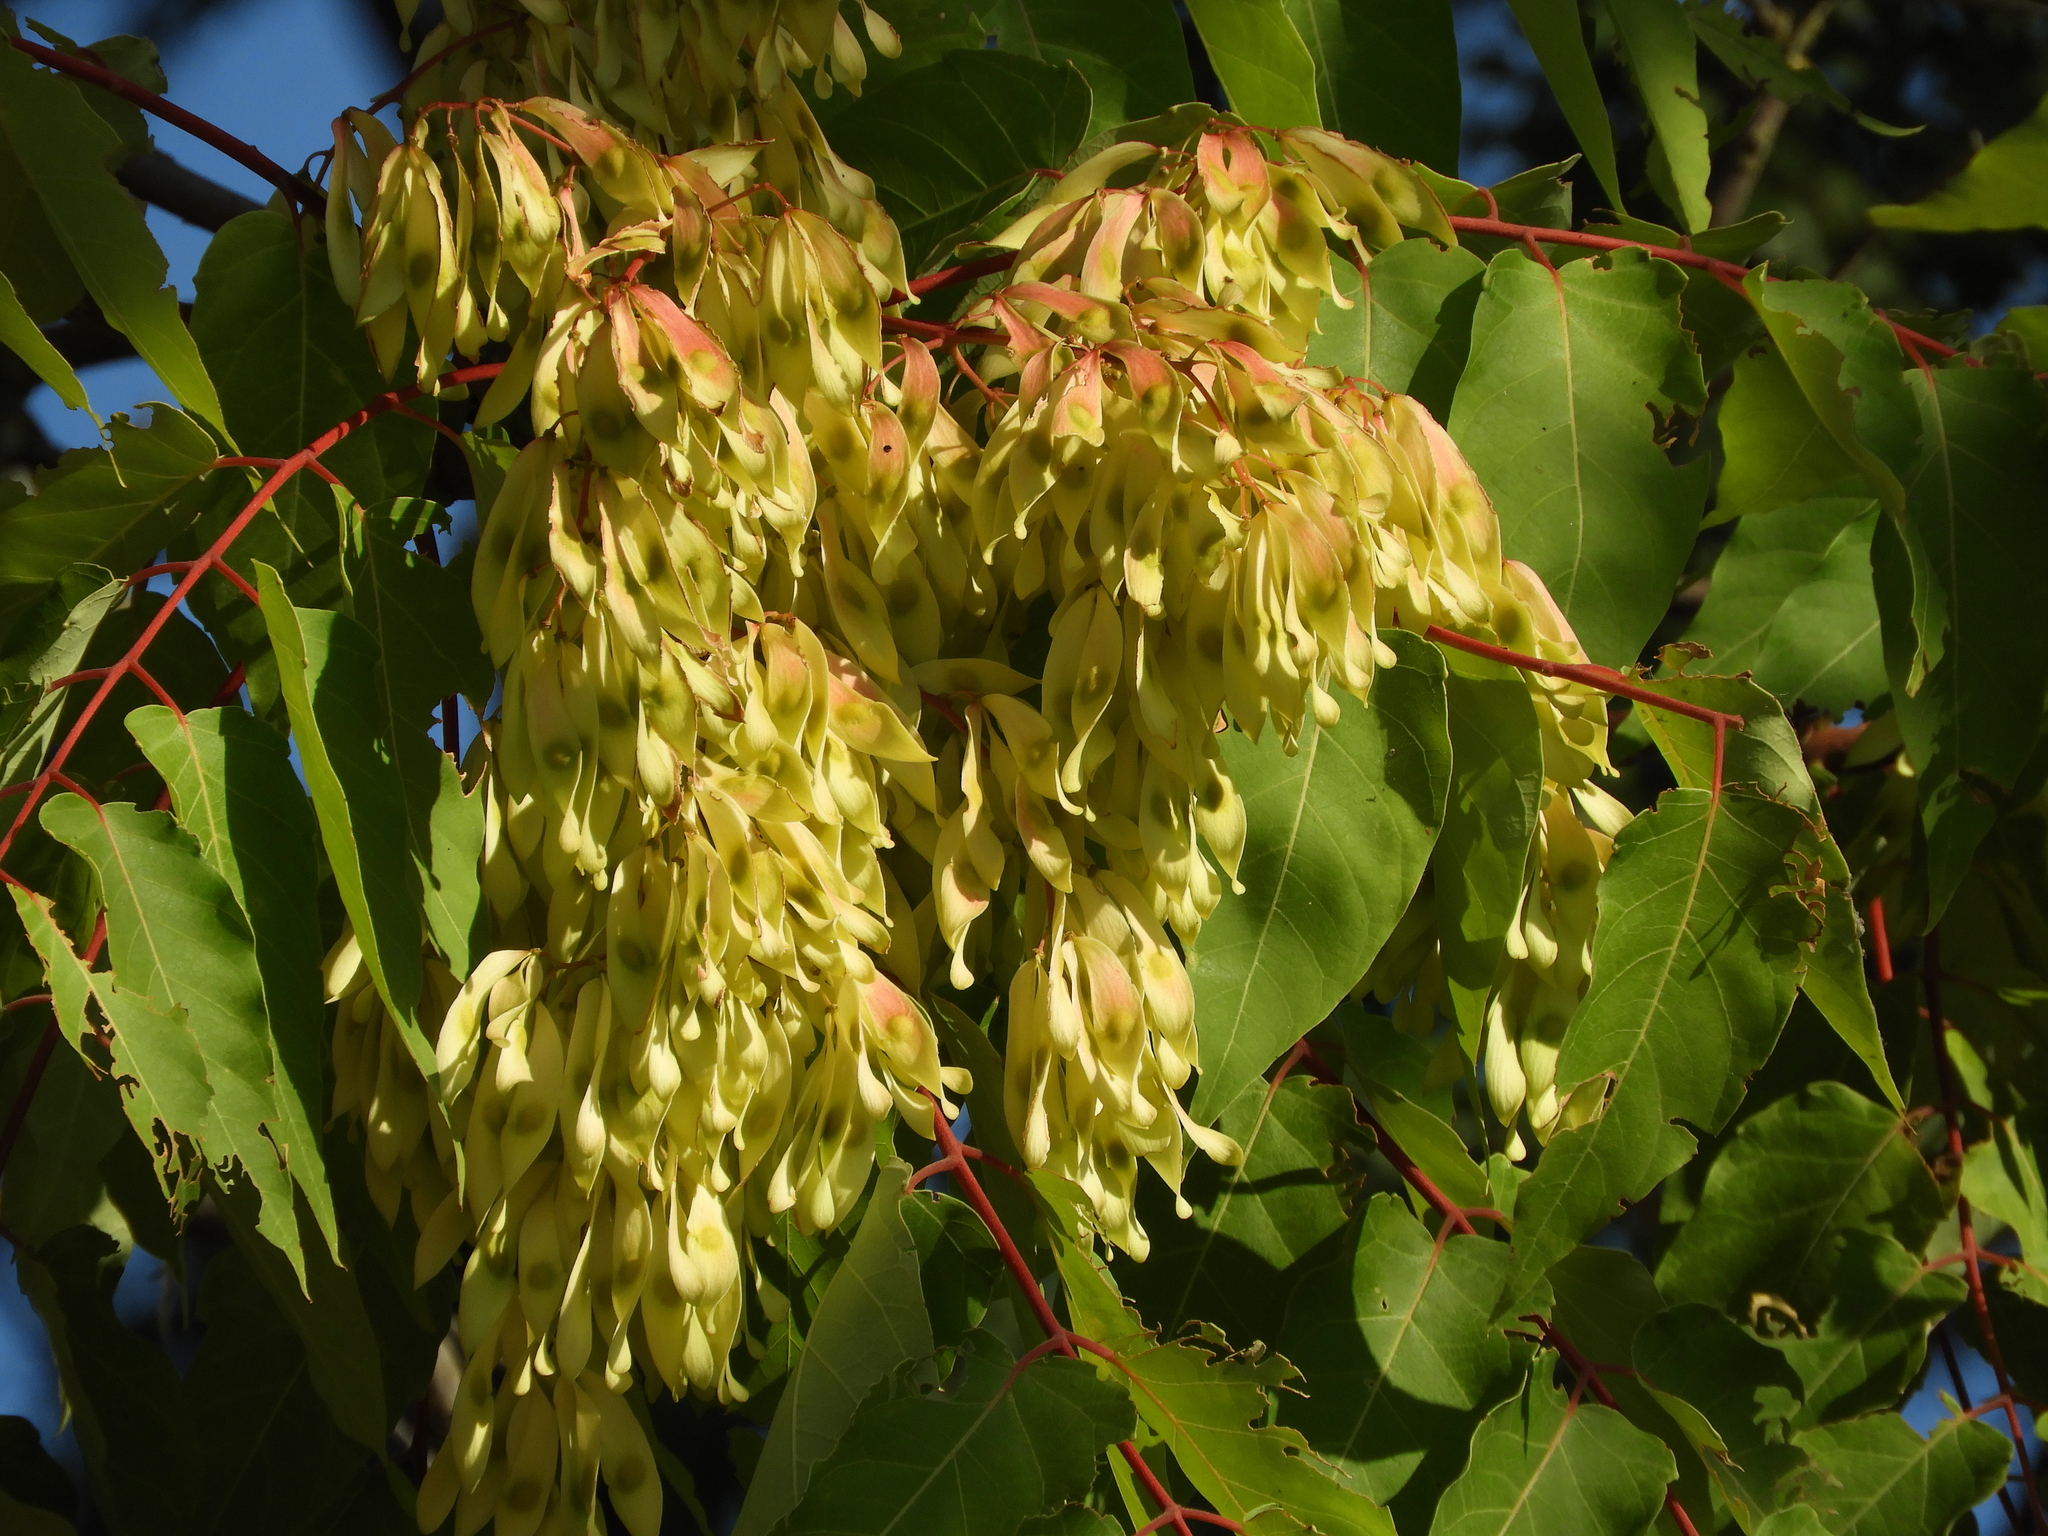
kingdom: Plantae
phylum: Tracheophyta
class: Magnoliopsida
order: Sapindales
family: Simaroubaceae
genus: Ailanthus
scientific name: Ailanthus altissima
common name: Tree-of-heaven
